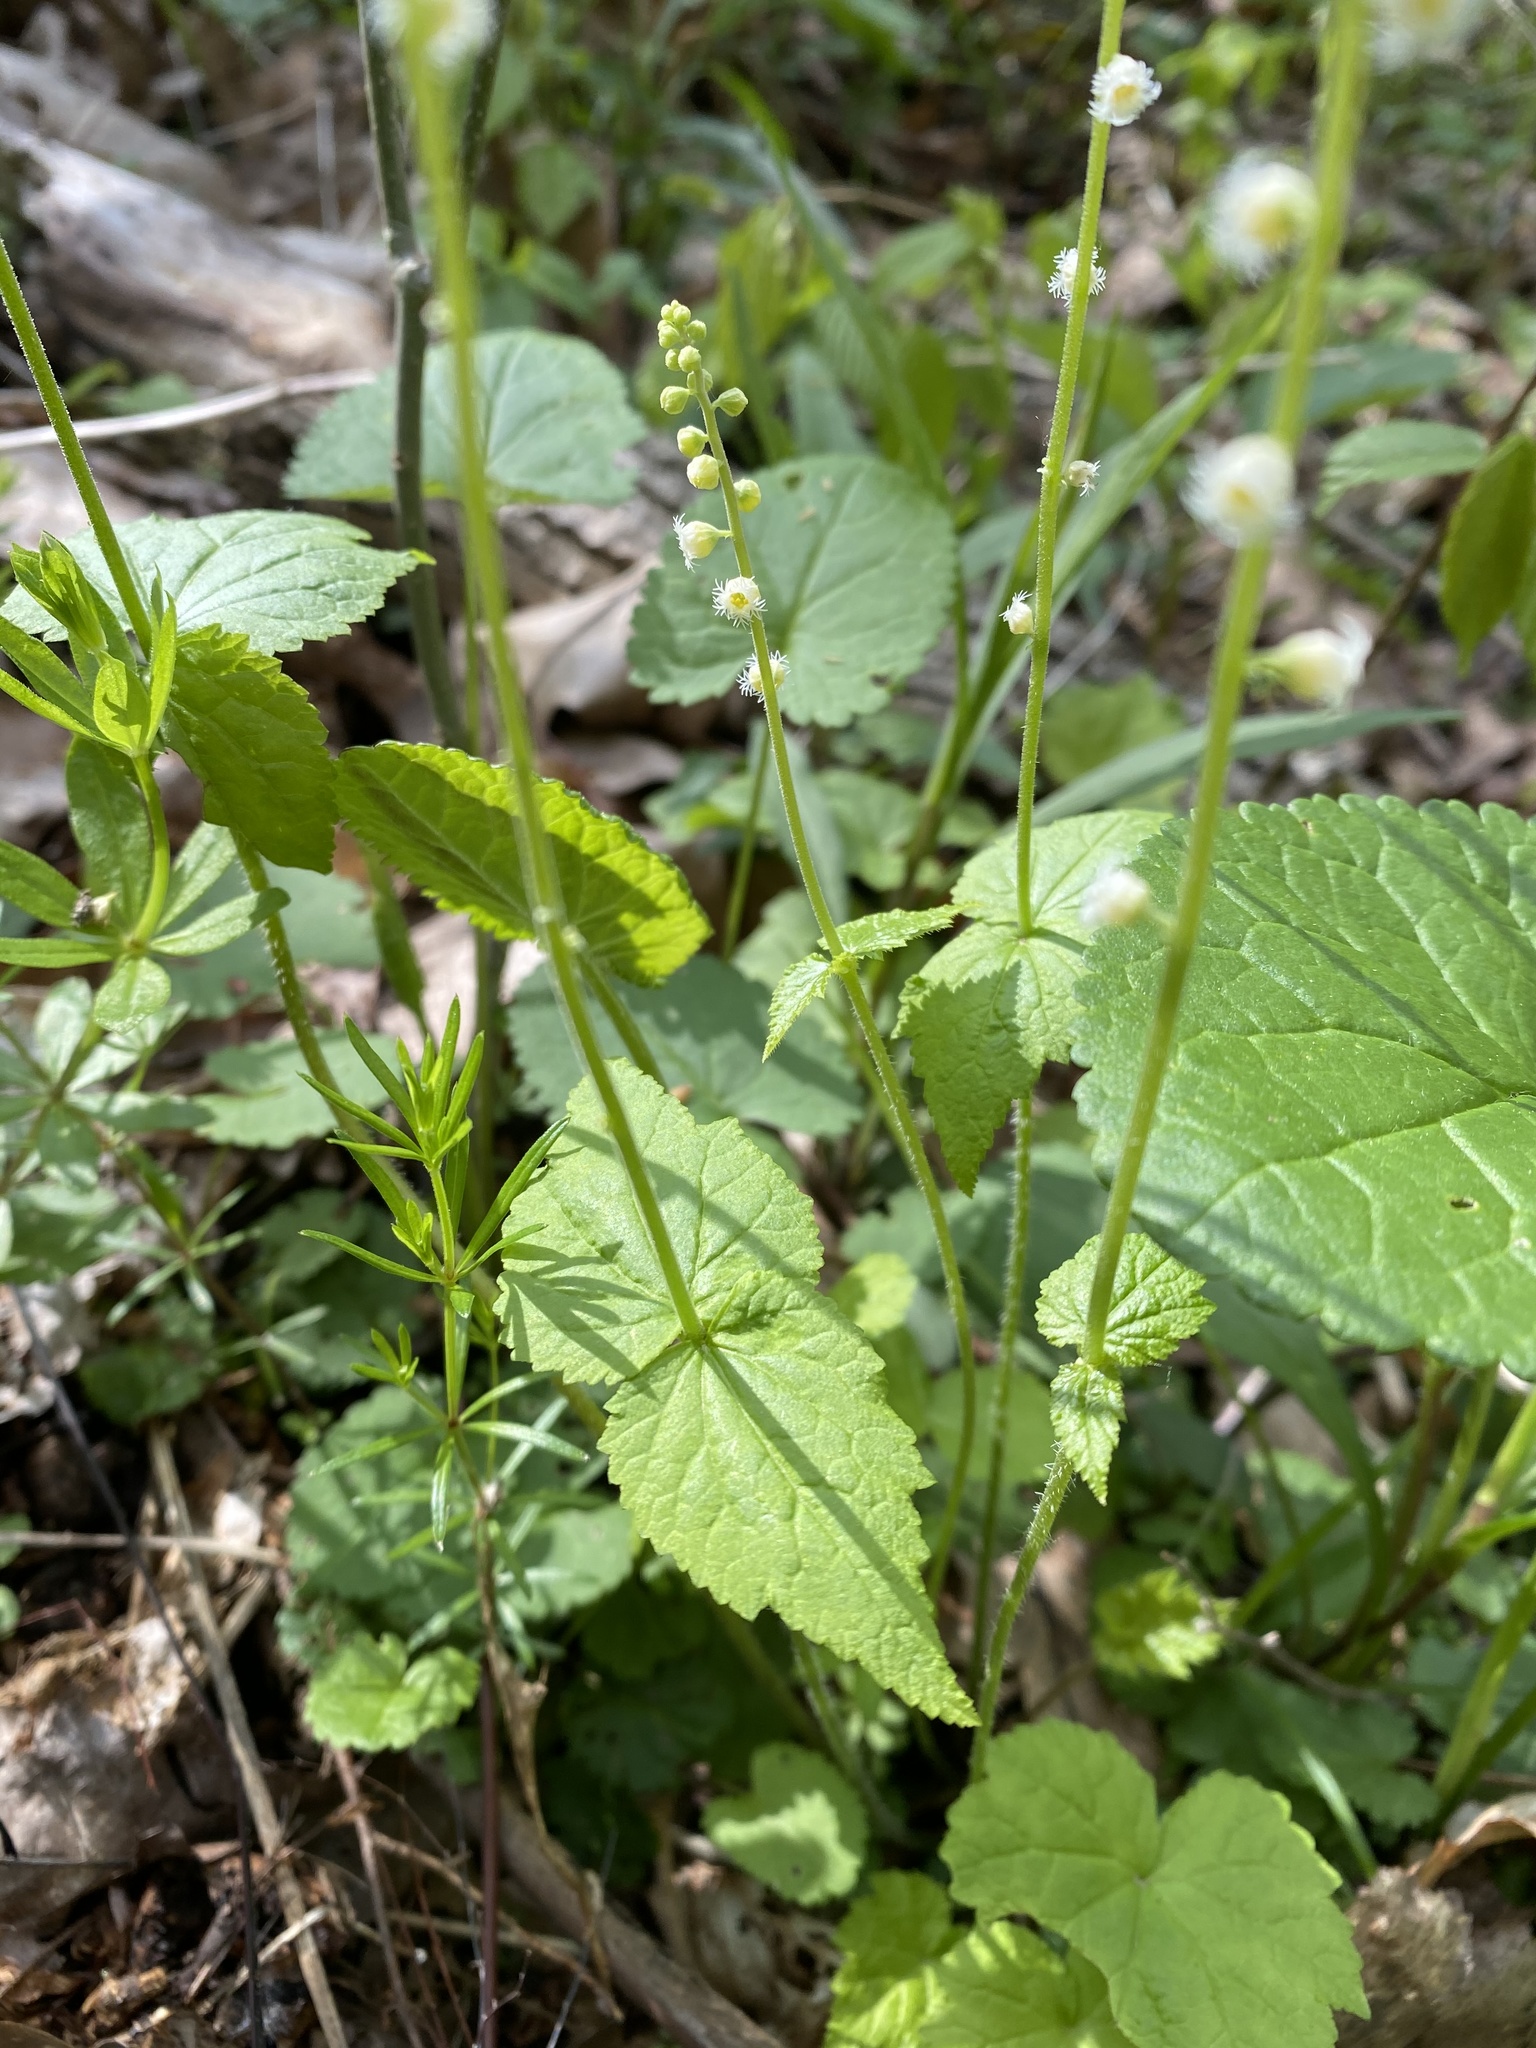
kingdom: Plantae
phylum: Tracheophyta
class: Magnoliopsida
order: Saxifragales
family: Saxifragaceae
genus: Mitella
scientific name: Mitella diphylla
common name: Coolwort
